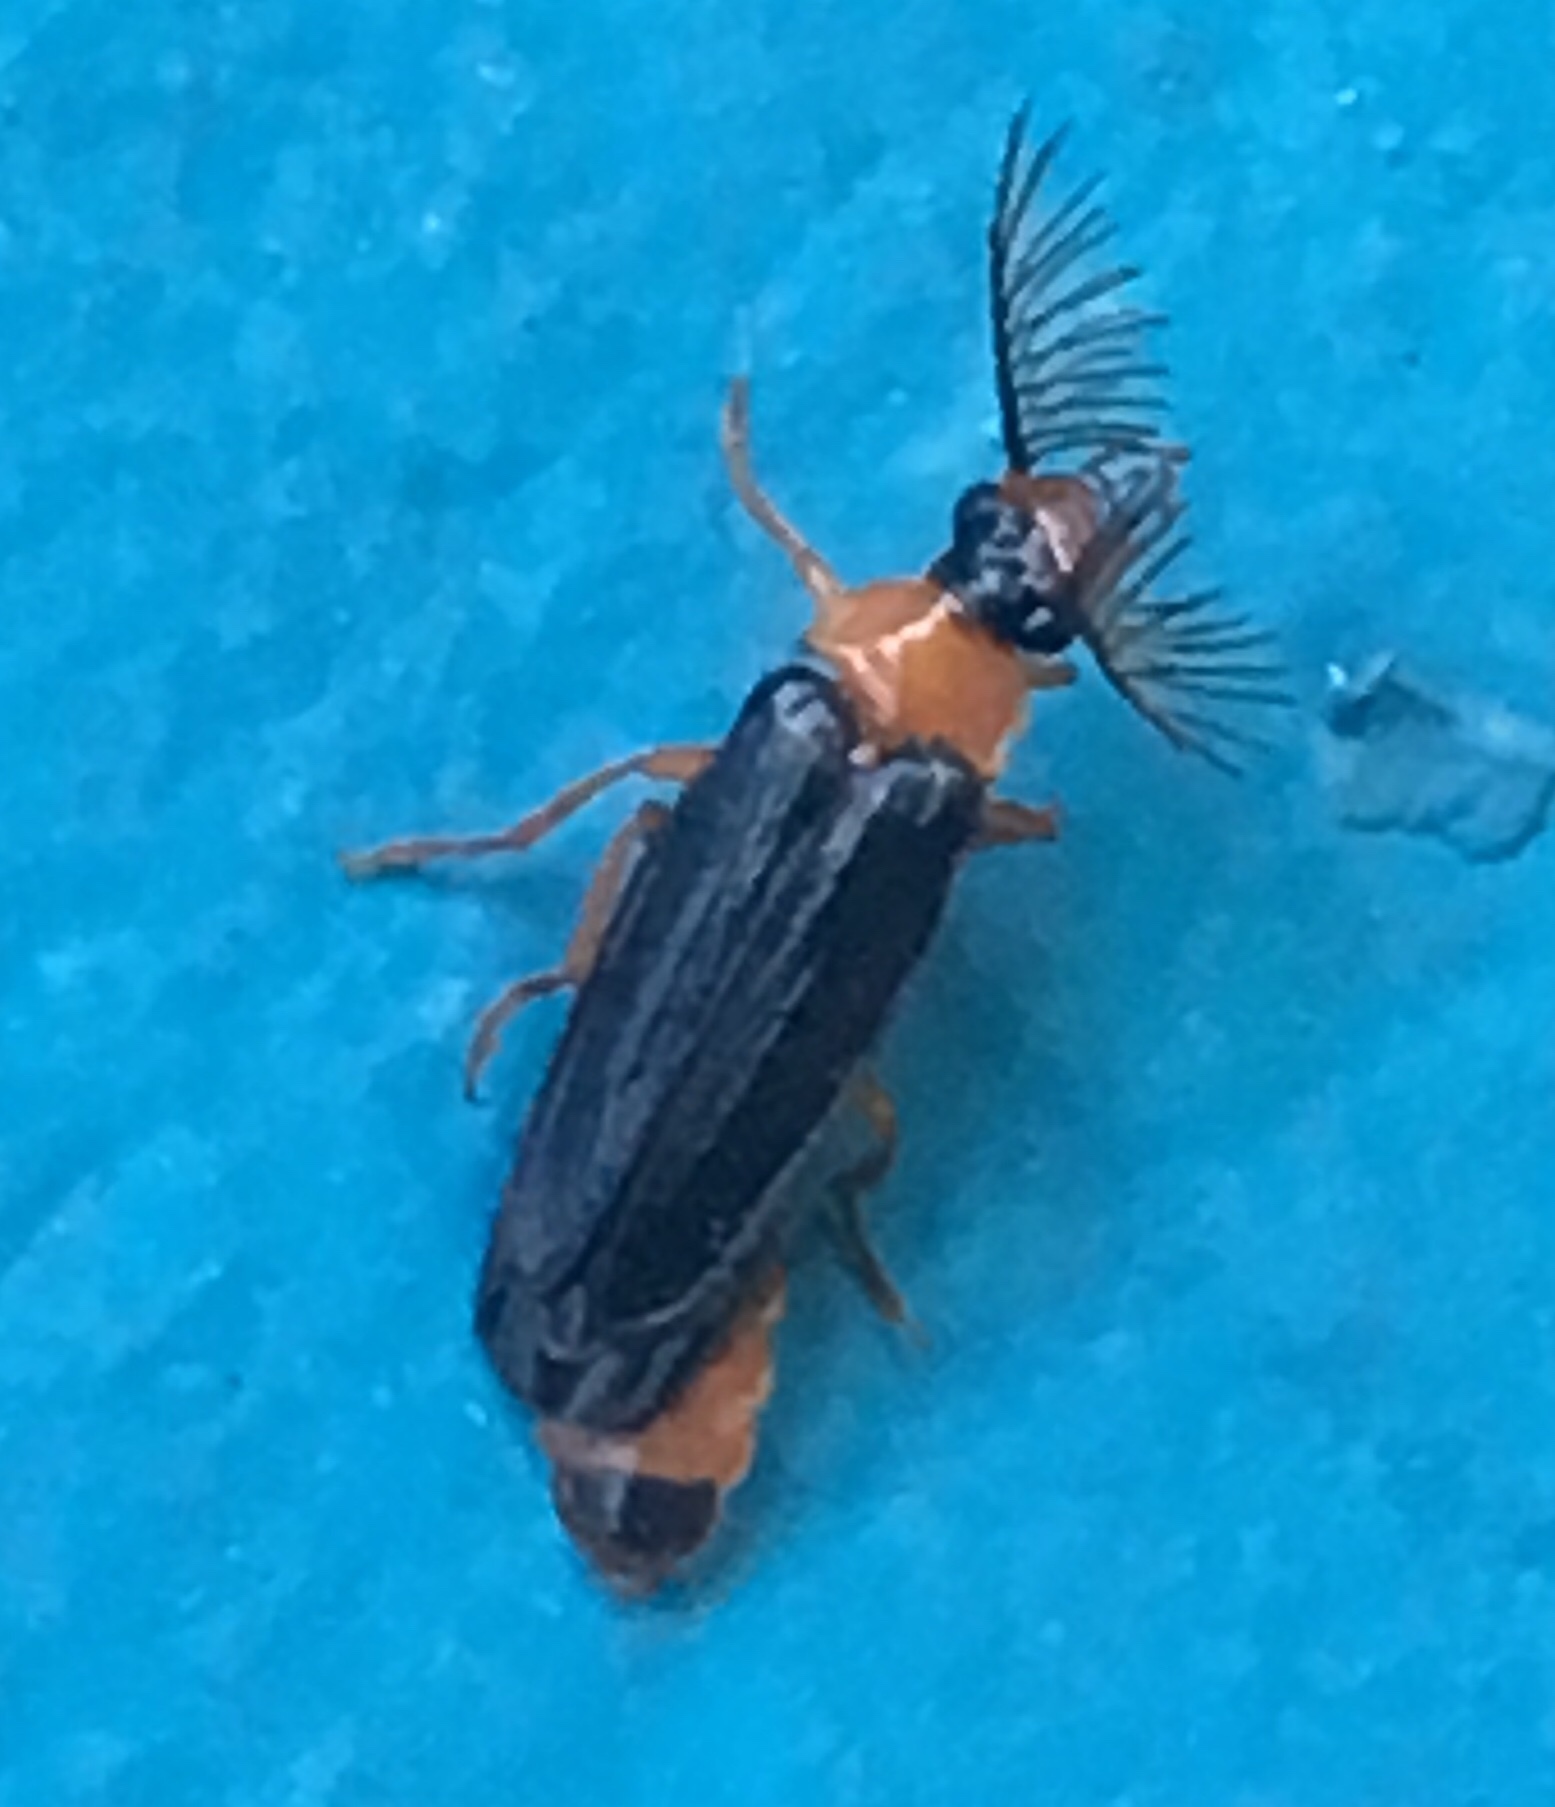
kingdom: Animalia
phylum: Arthropoda
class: Insecta
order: Coleoptera
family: Phengodidae
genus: Zarhipis
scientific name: Zarhipis integripennis
